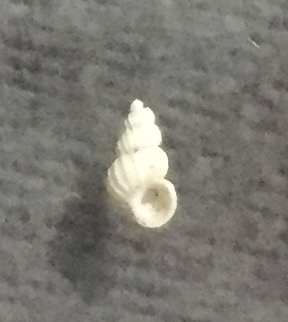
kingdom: Animalia
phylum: Mollusca
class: Gastropoda
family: Epitoniidae
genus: Epitonium
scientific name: Epitonium jukesianum
